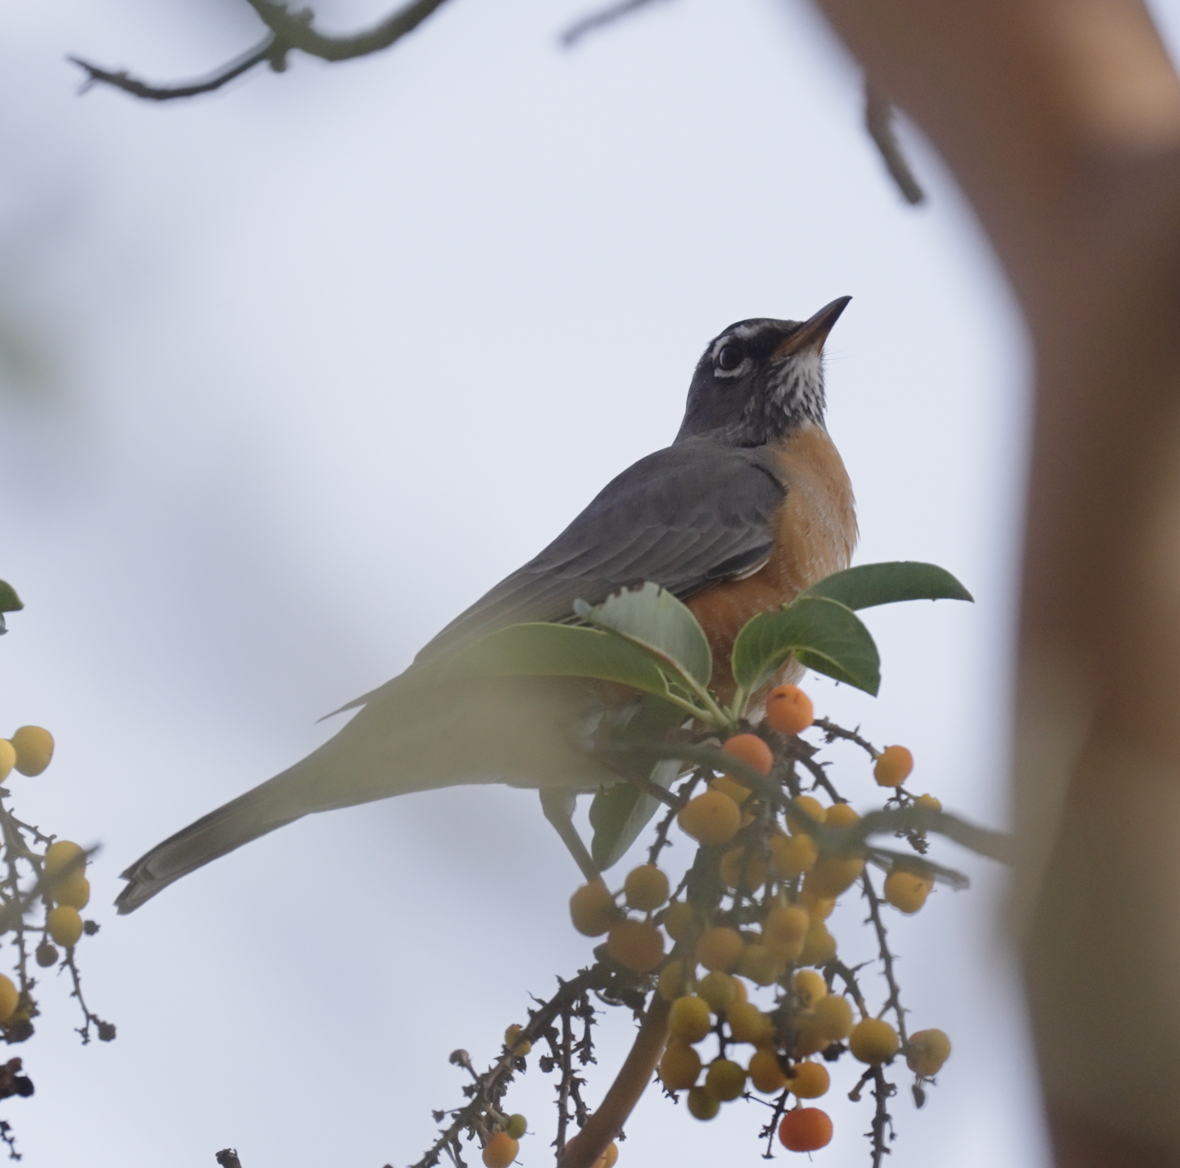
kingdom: Animalia
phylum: Chordata
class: Aves
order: Passeriformes
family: Turdidae
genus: Turdus
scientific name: Turdus migratorius
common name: American robin
